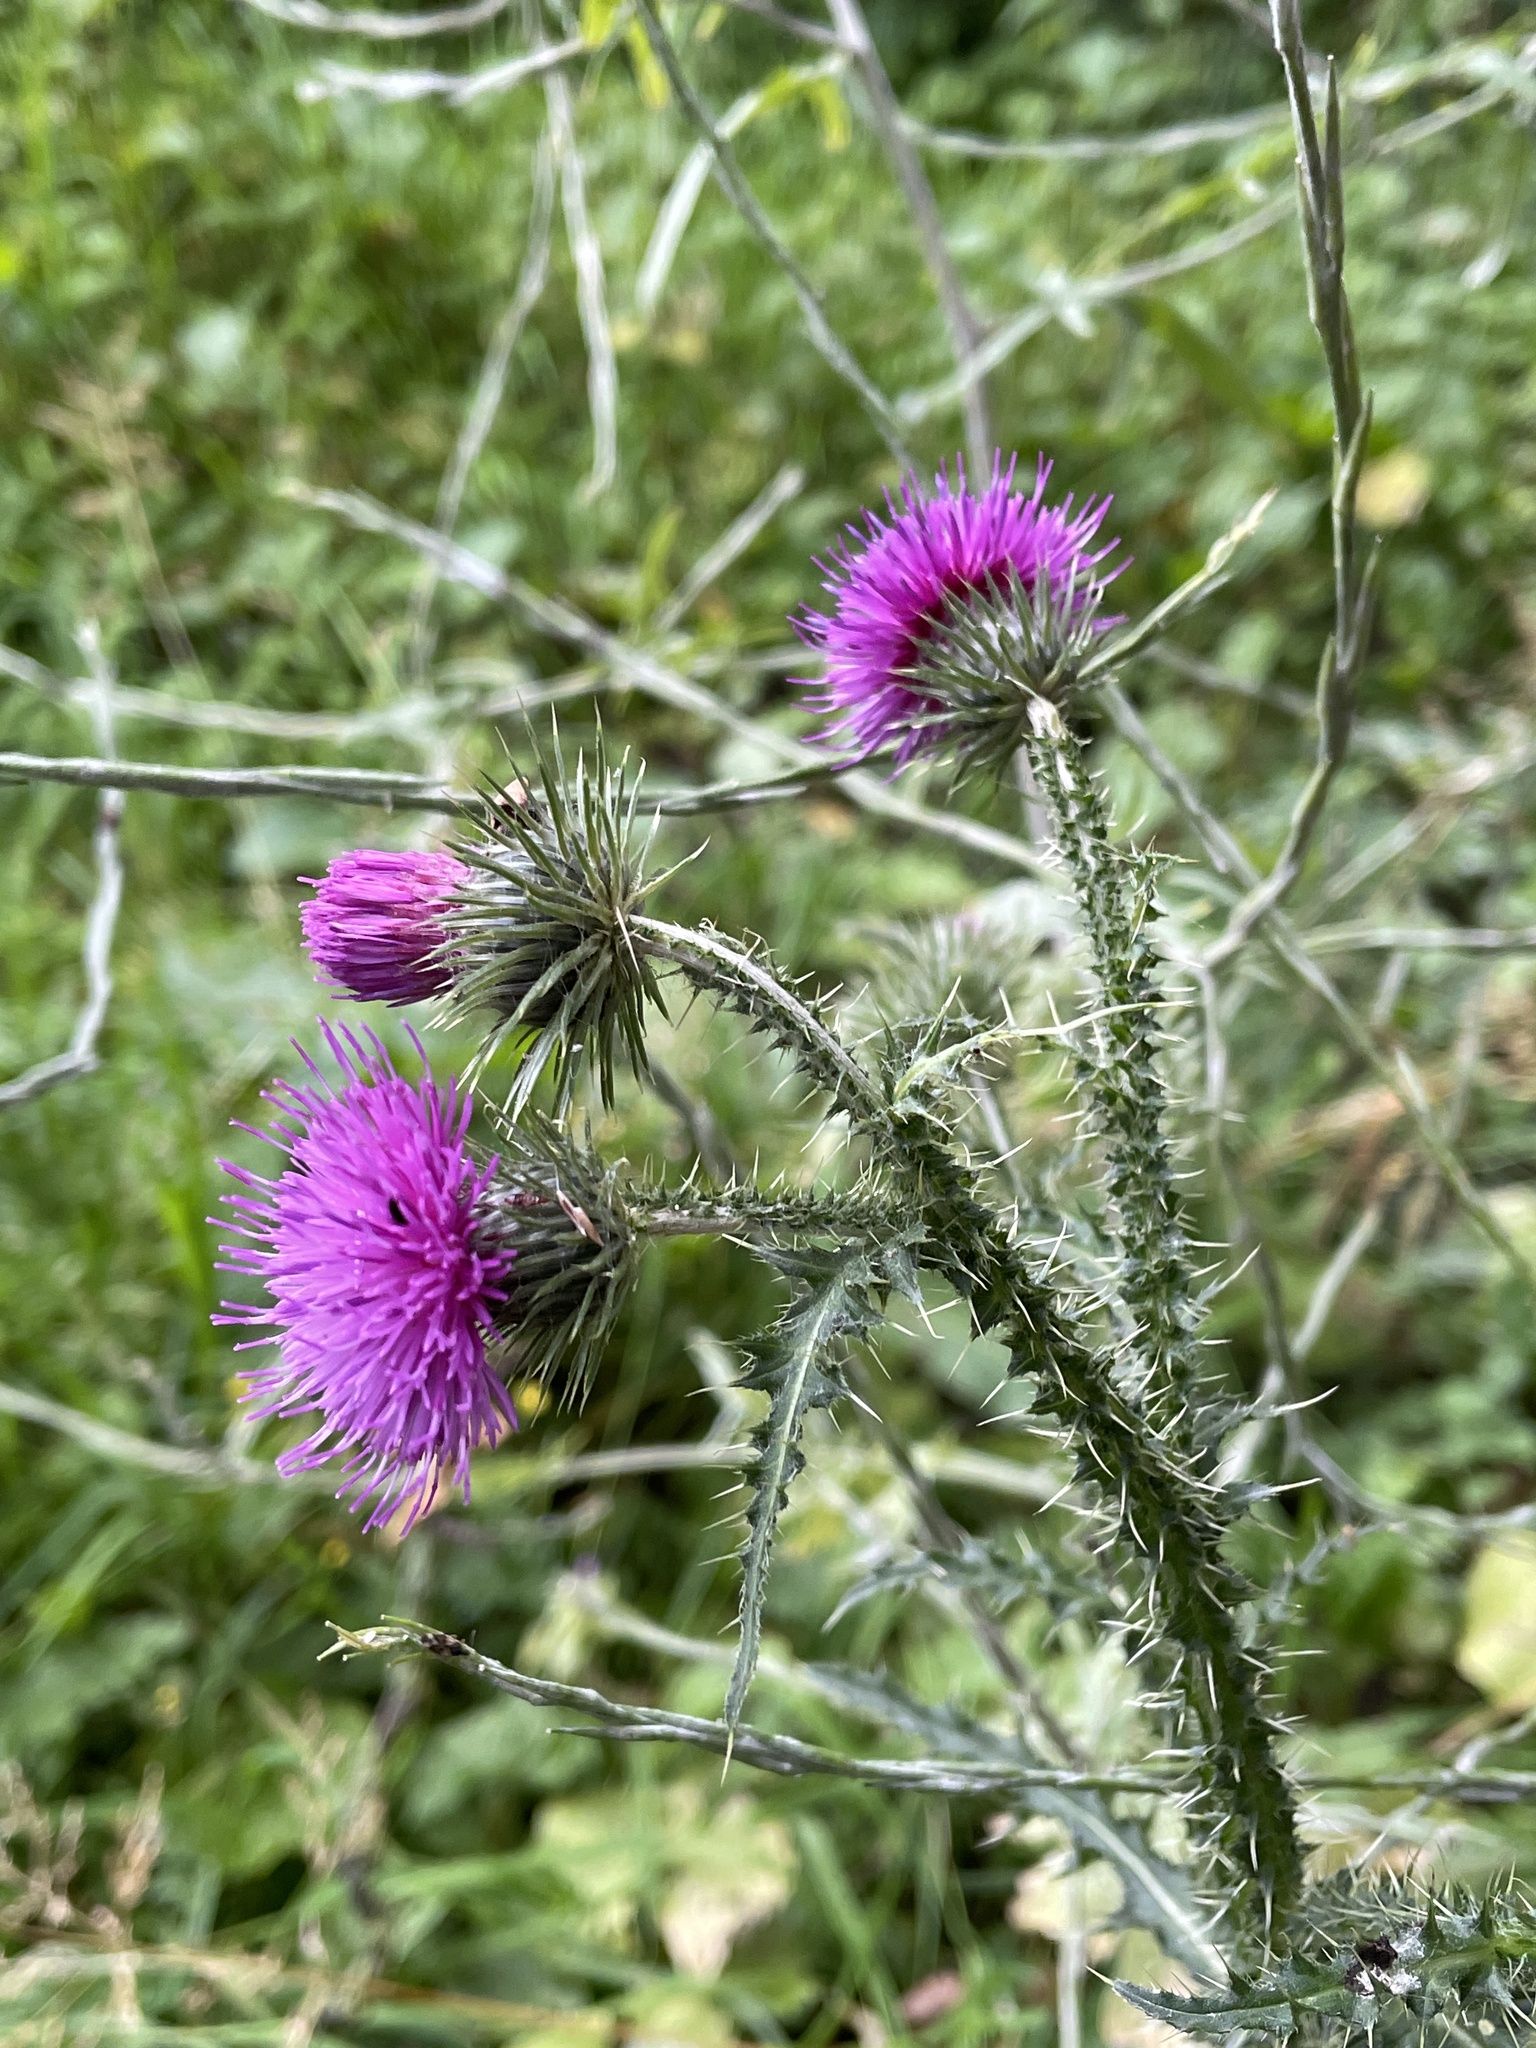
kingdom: Plantae
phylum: Tracheophyta
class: Magnoliopsida
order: Asterales
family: Asteraceae
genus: Carduus
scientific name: Carduus crispus
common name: Welted thistle
